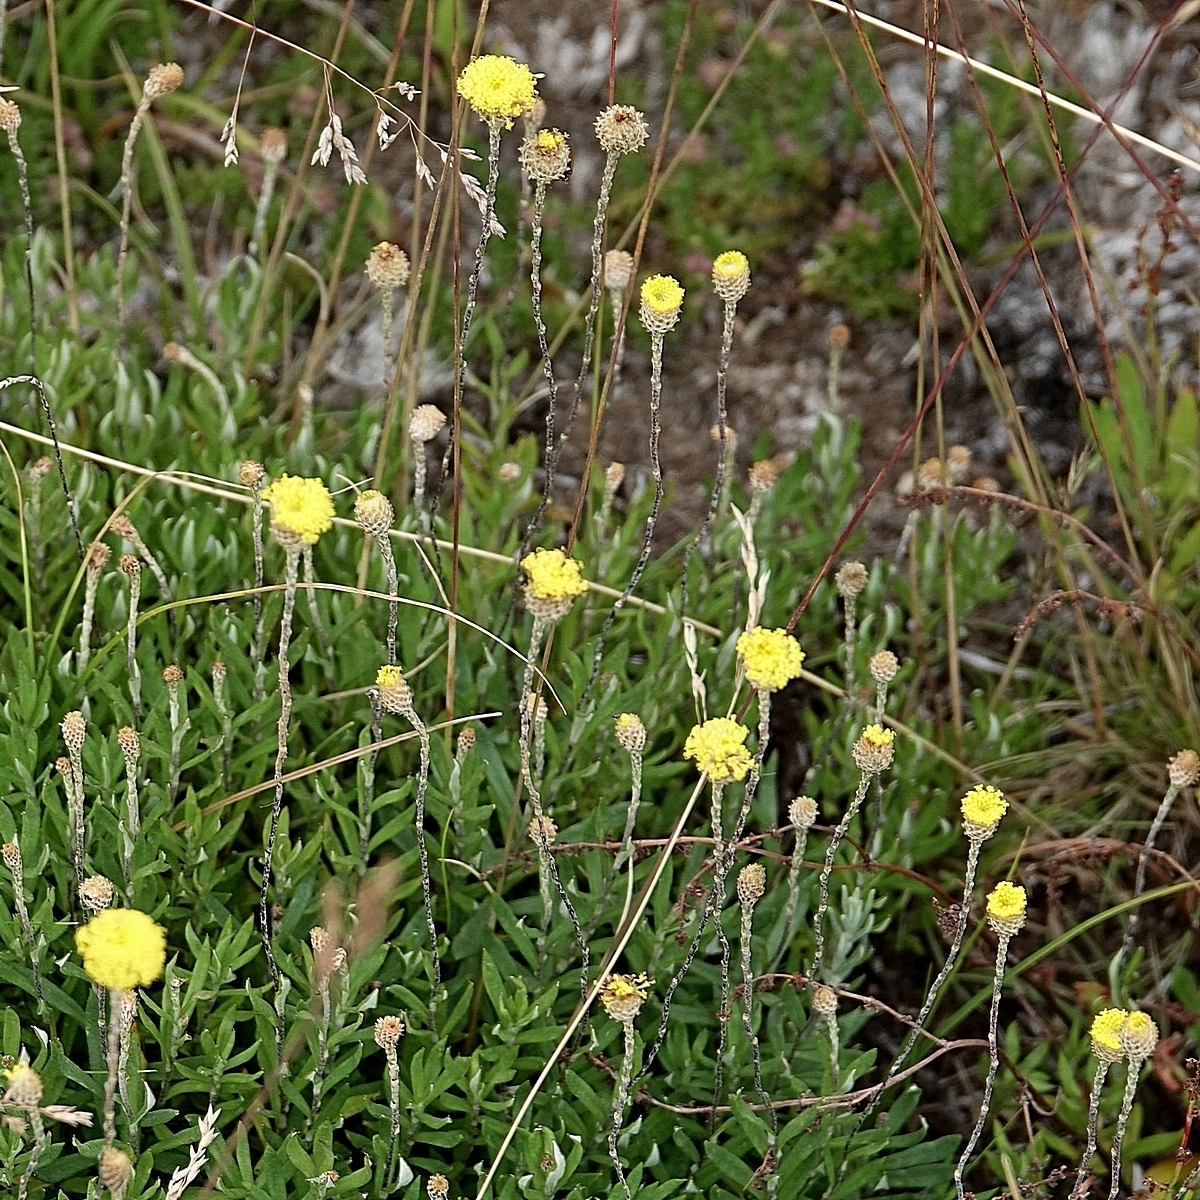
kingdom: Plantae
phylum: Tracheophyta
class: Magnoliopsida
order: Asterales
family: Asteraceae
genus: Leptorhynchos
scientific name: Leptorhynchos squamatus
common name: Scaly-buttons
